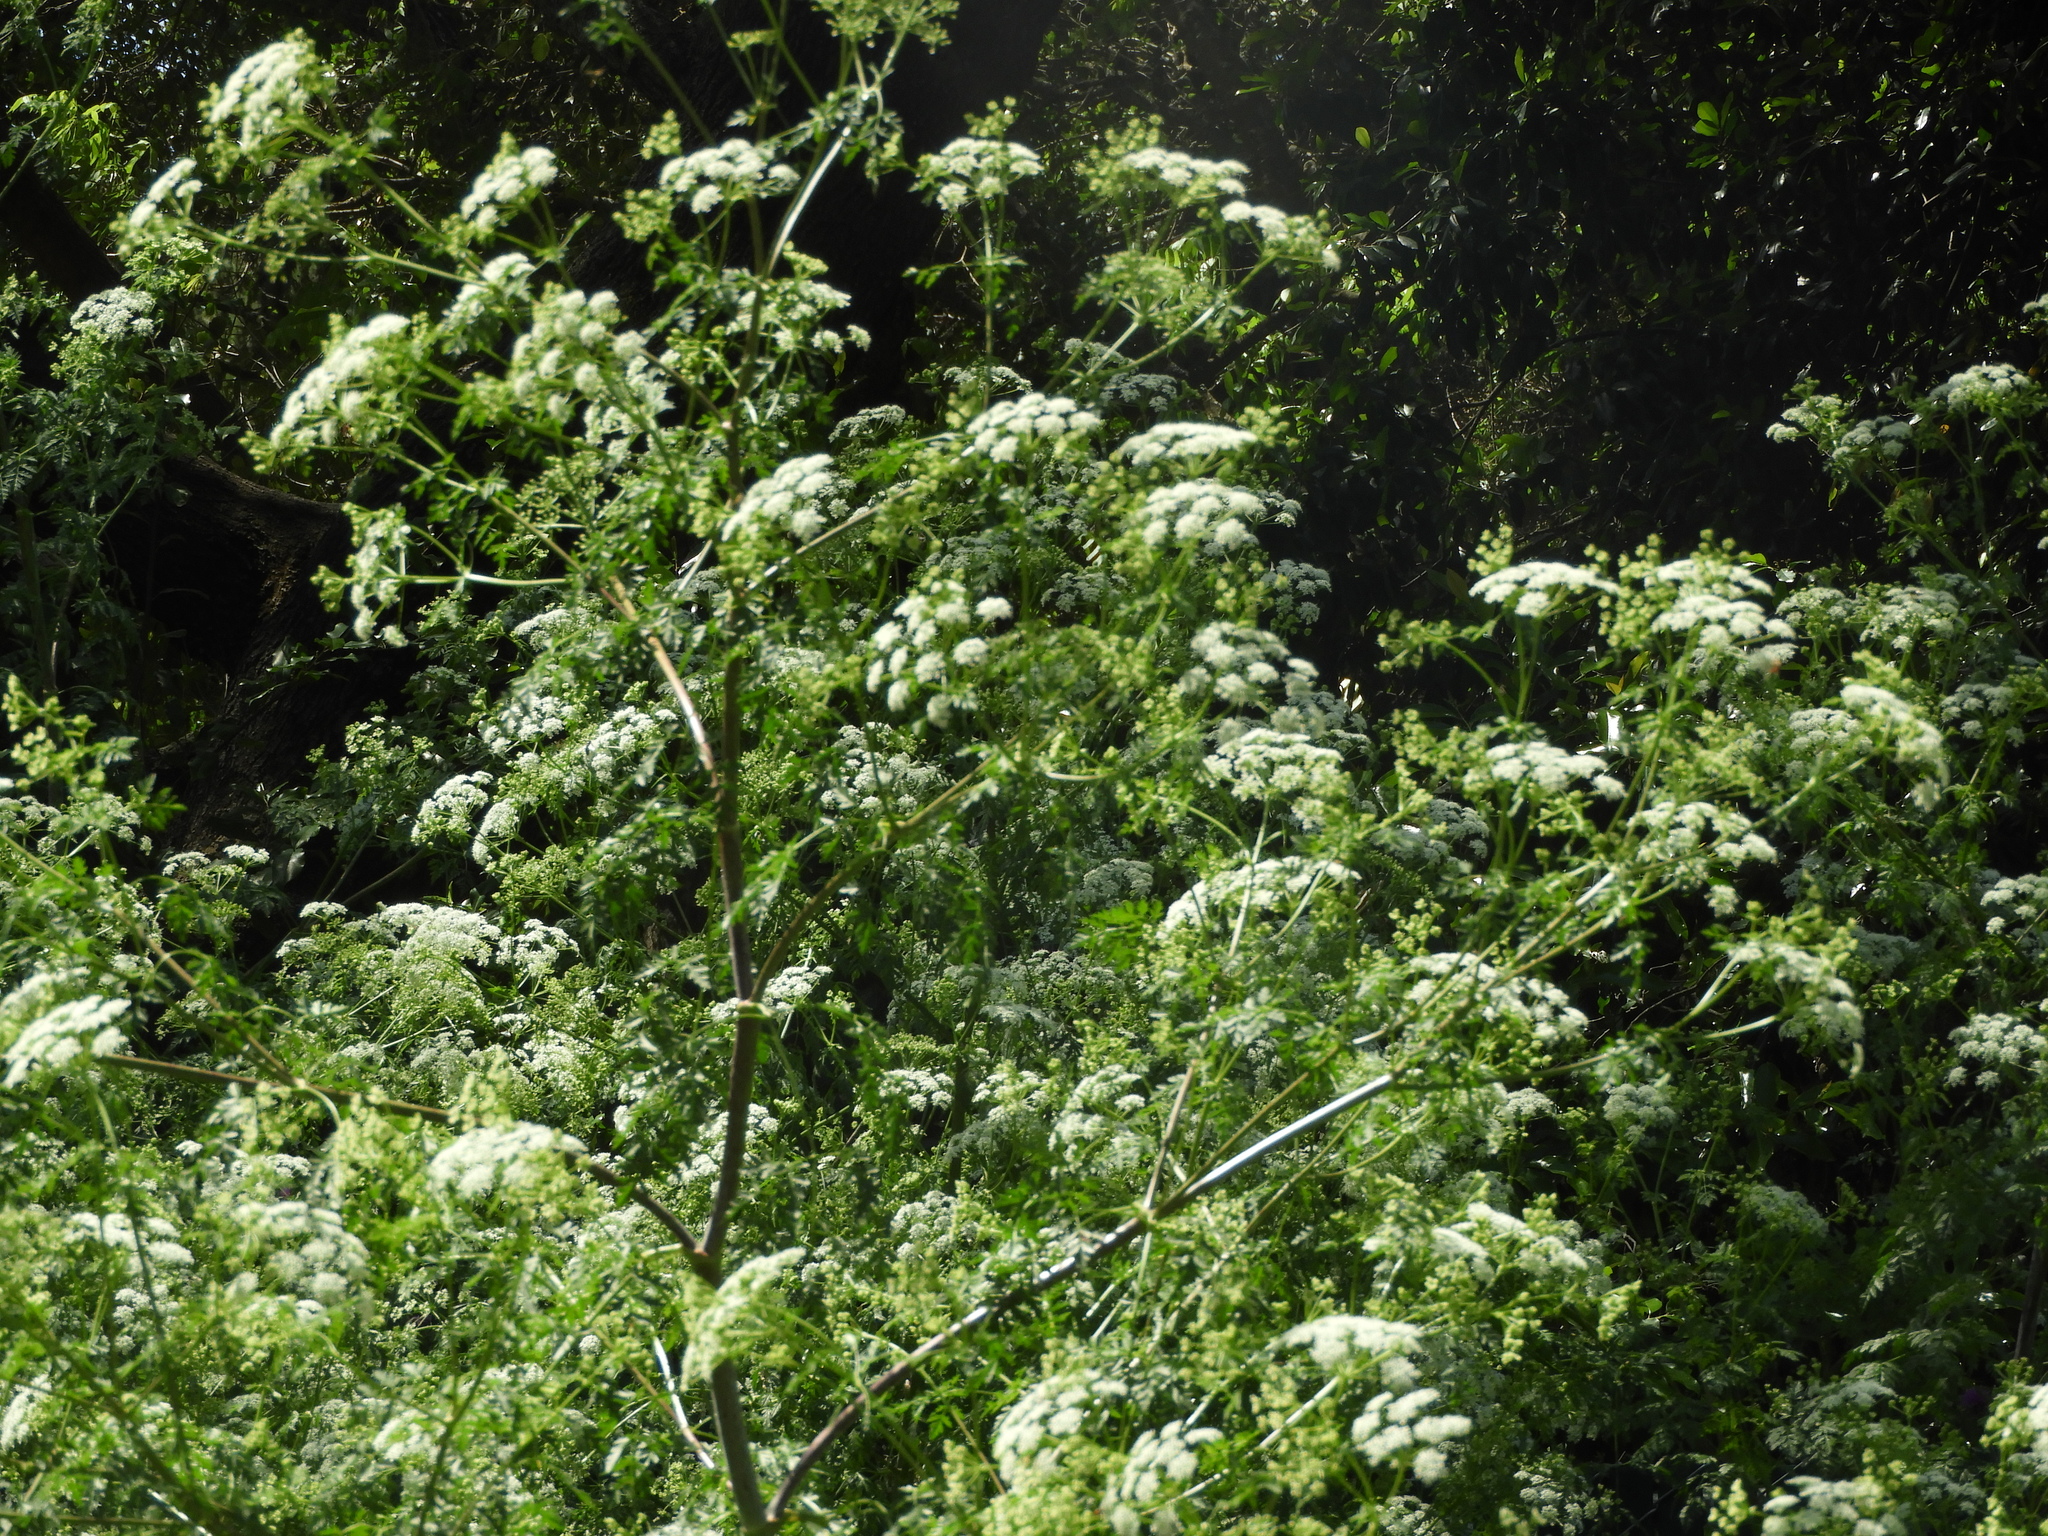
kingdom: Plantae
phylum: Tracheophyta
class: Magnoliopsida
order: Apiales
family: Apiaceae
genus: Conium
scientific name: Conium maculatum
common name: Hemlock
